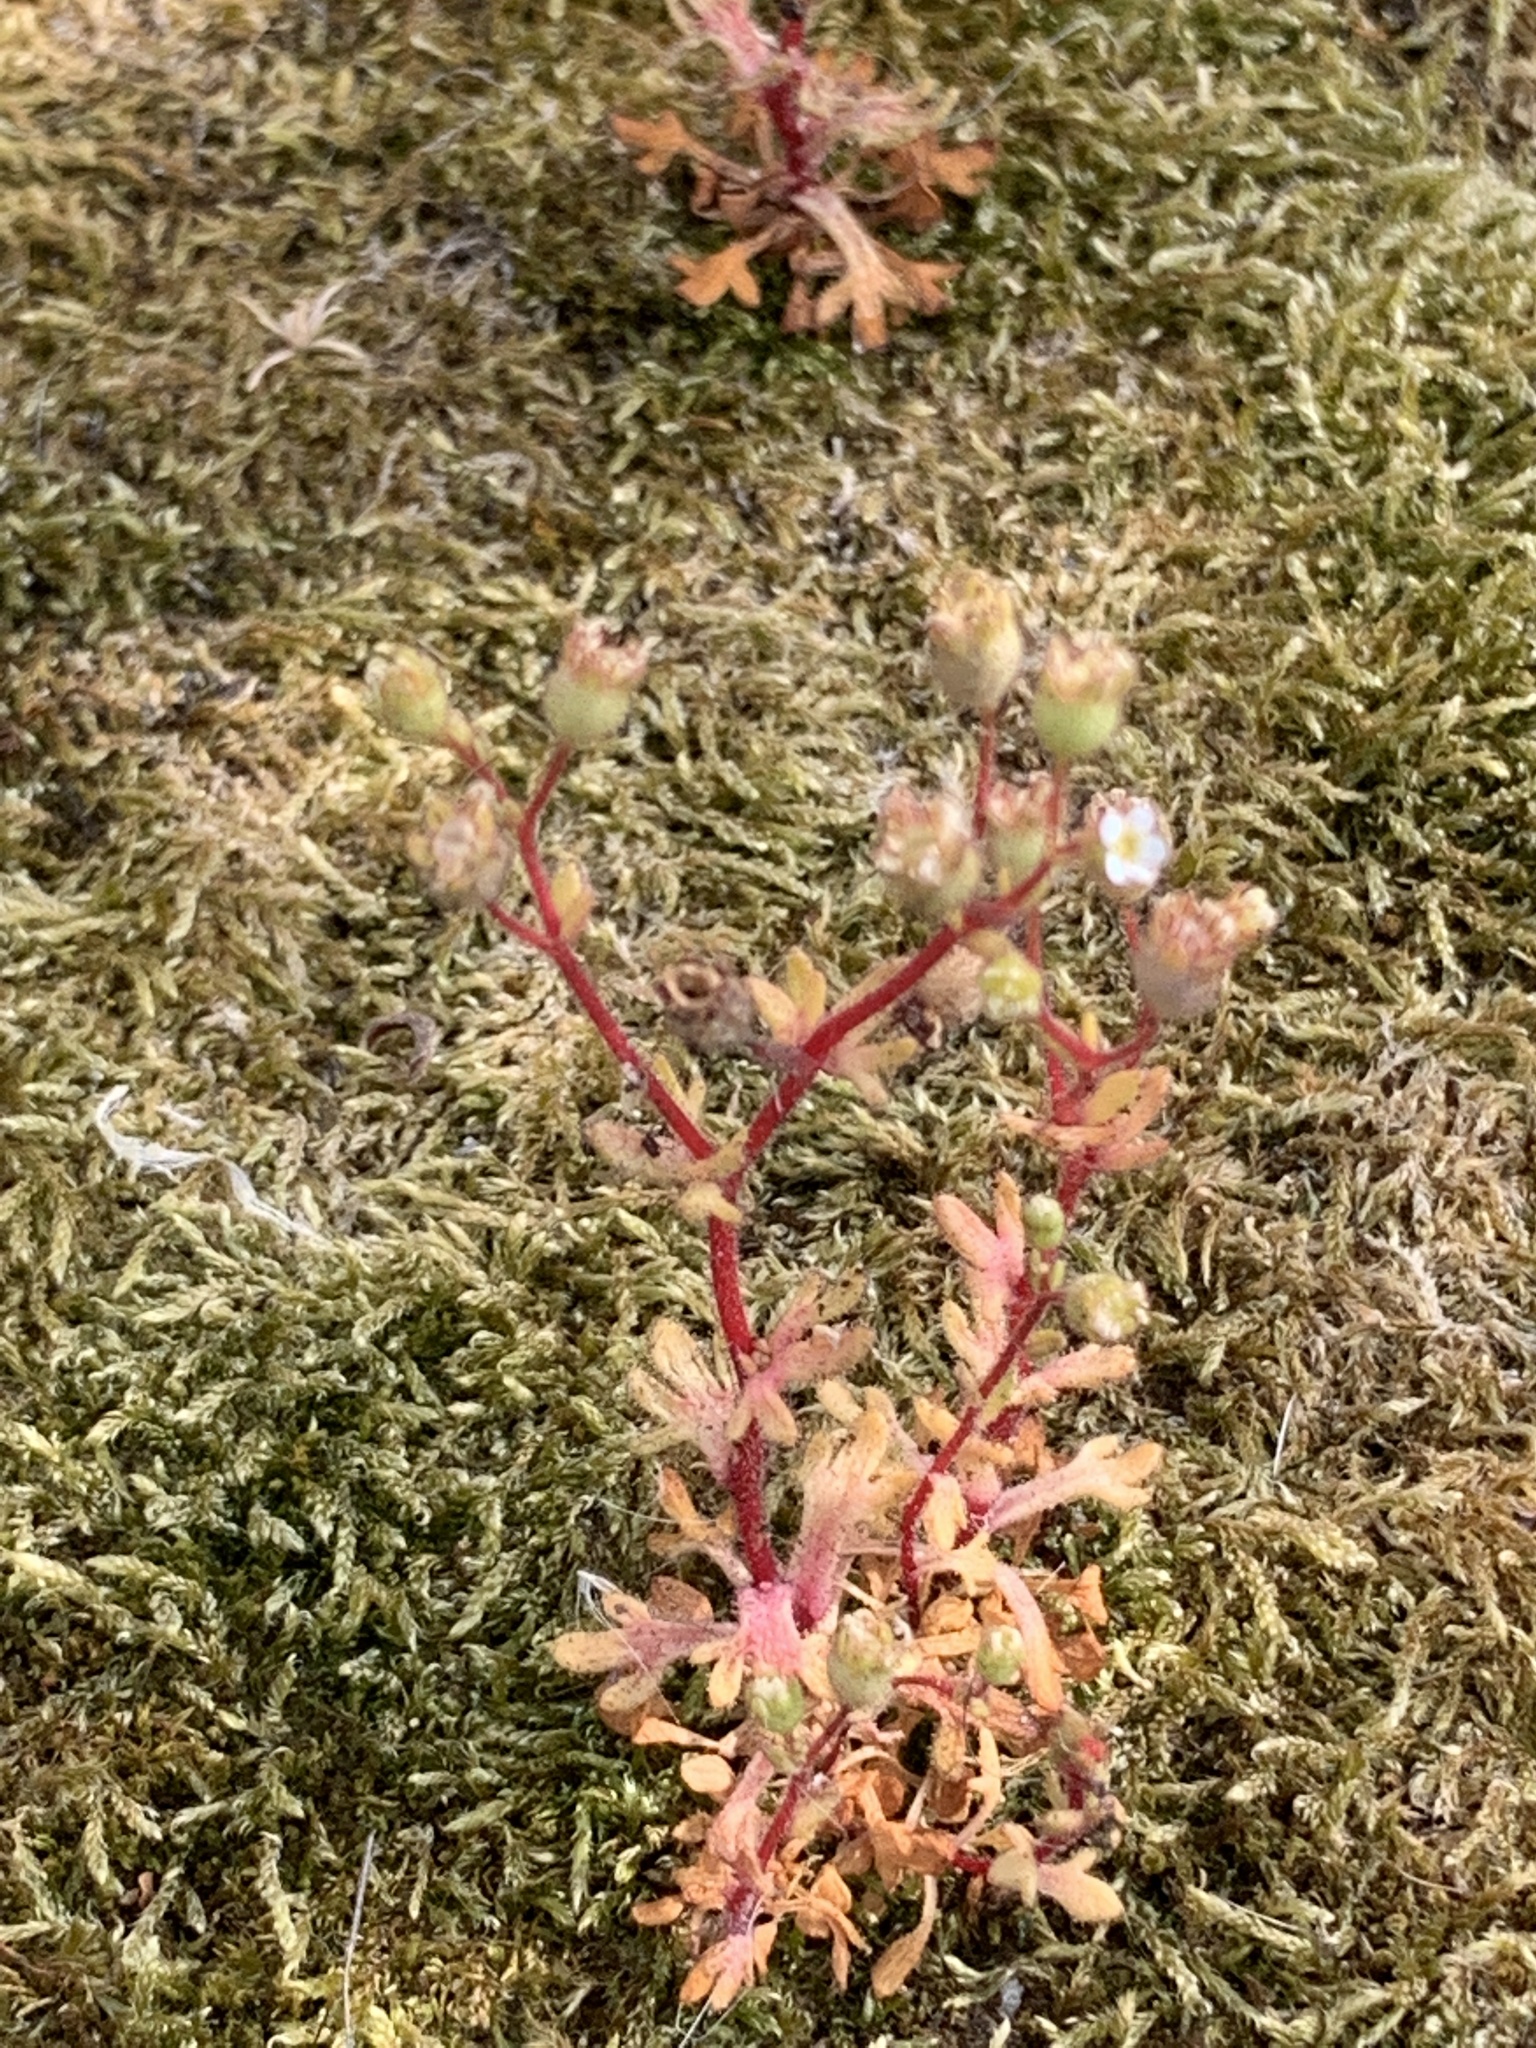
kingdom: Plantae
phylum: Tracheophyta
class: Magnoliopsida
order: Saxifragales
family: Saxifragaceae
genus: Saxifraga
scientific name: Saxifraga tridactylites
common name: Rue-leaved saxifrage
